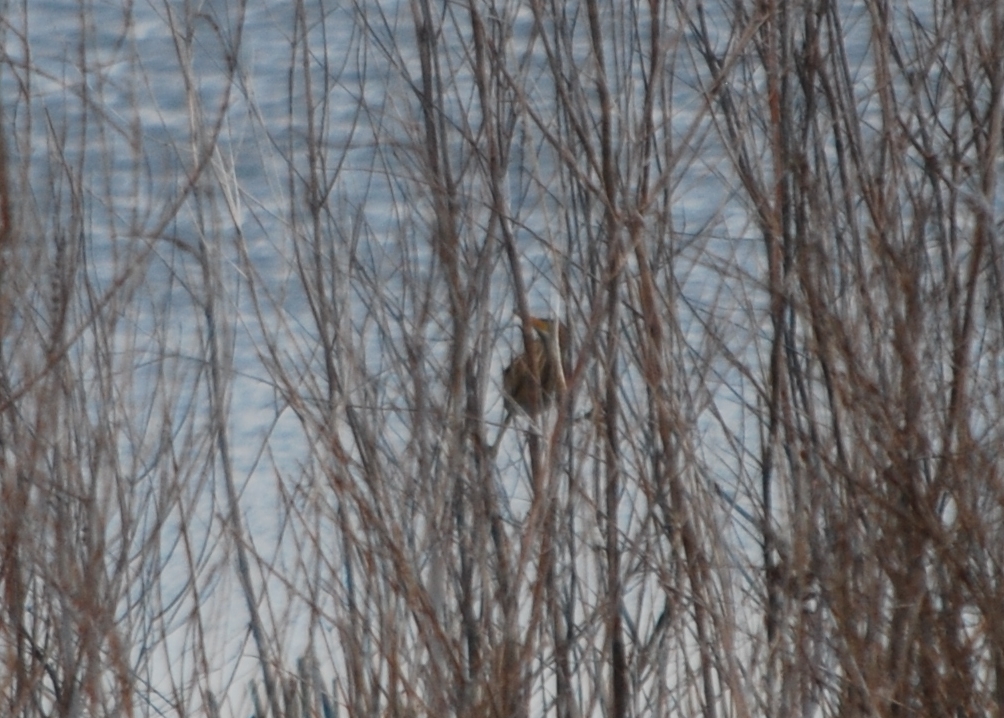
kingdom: Animalia
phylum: Chordata
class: Aves
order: Pelecaniformes
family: Ardeidae
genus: Ixobrychus
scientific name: Ixobrychus exilis
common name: Least bittern
